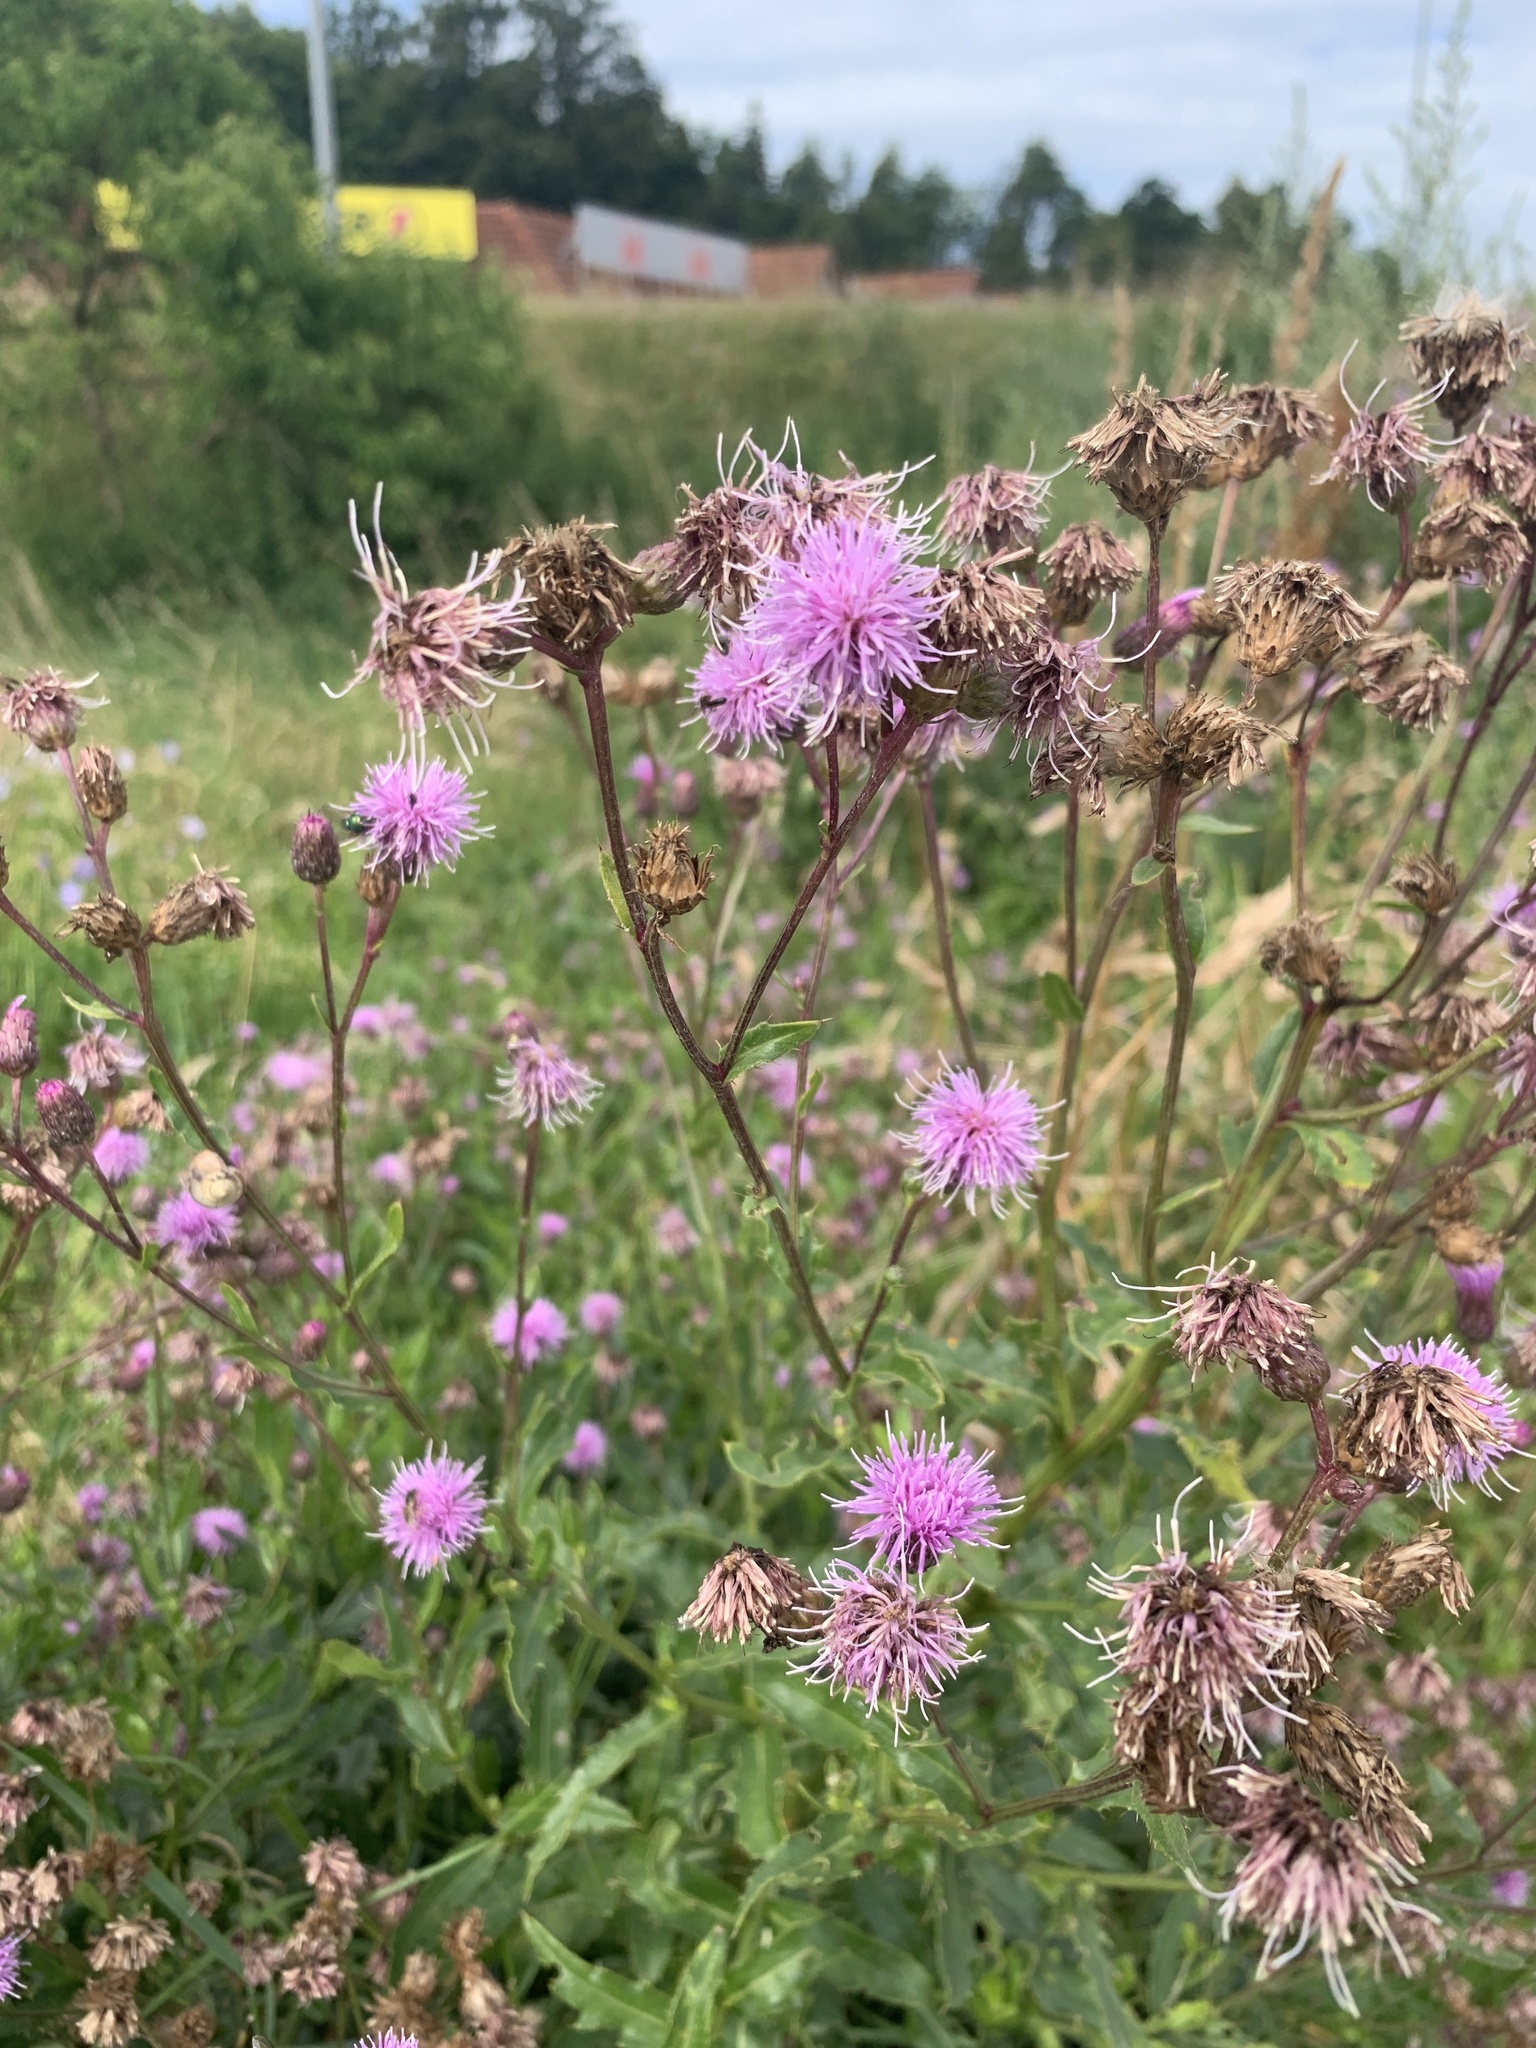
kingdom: Plantae
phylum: Tracheophyta
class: Magnoliopsida
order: Asterales
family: Asteraceae
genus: Cirsium
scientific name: Cirsium arvense
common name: Creeping thistle
